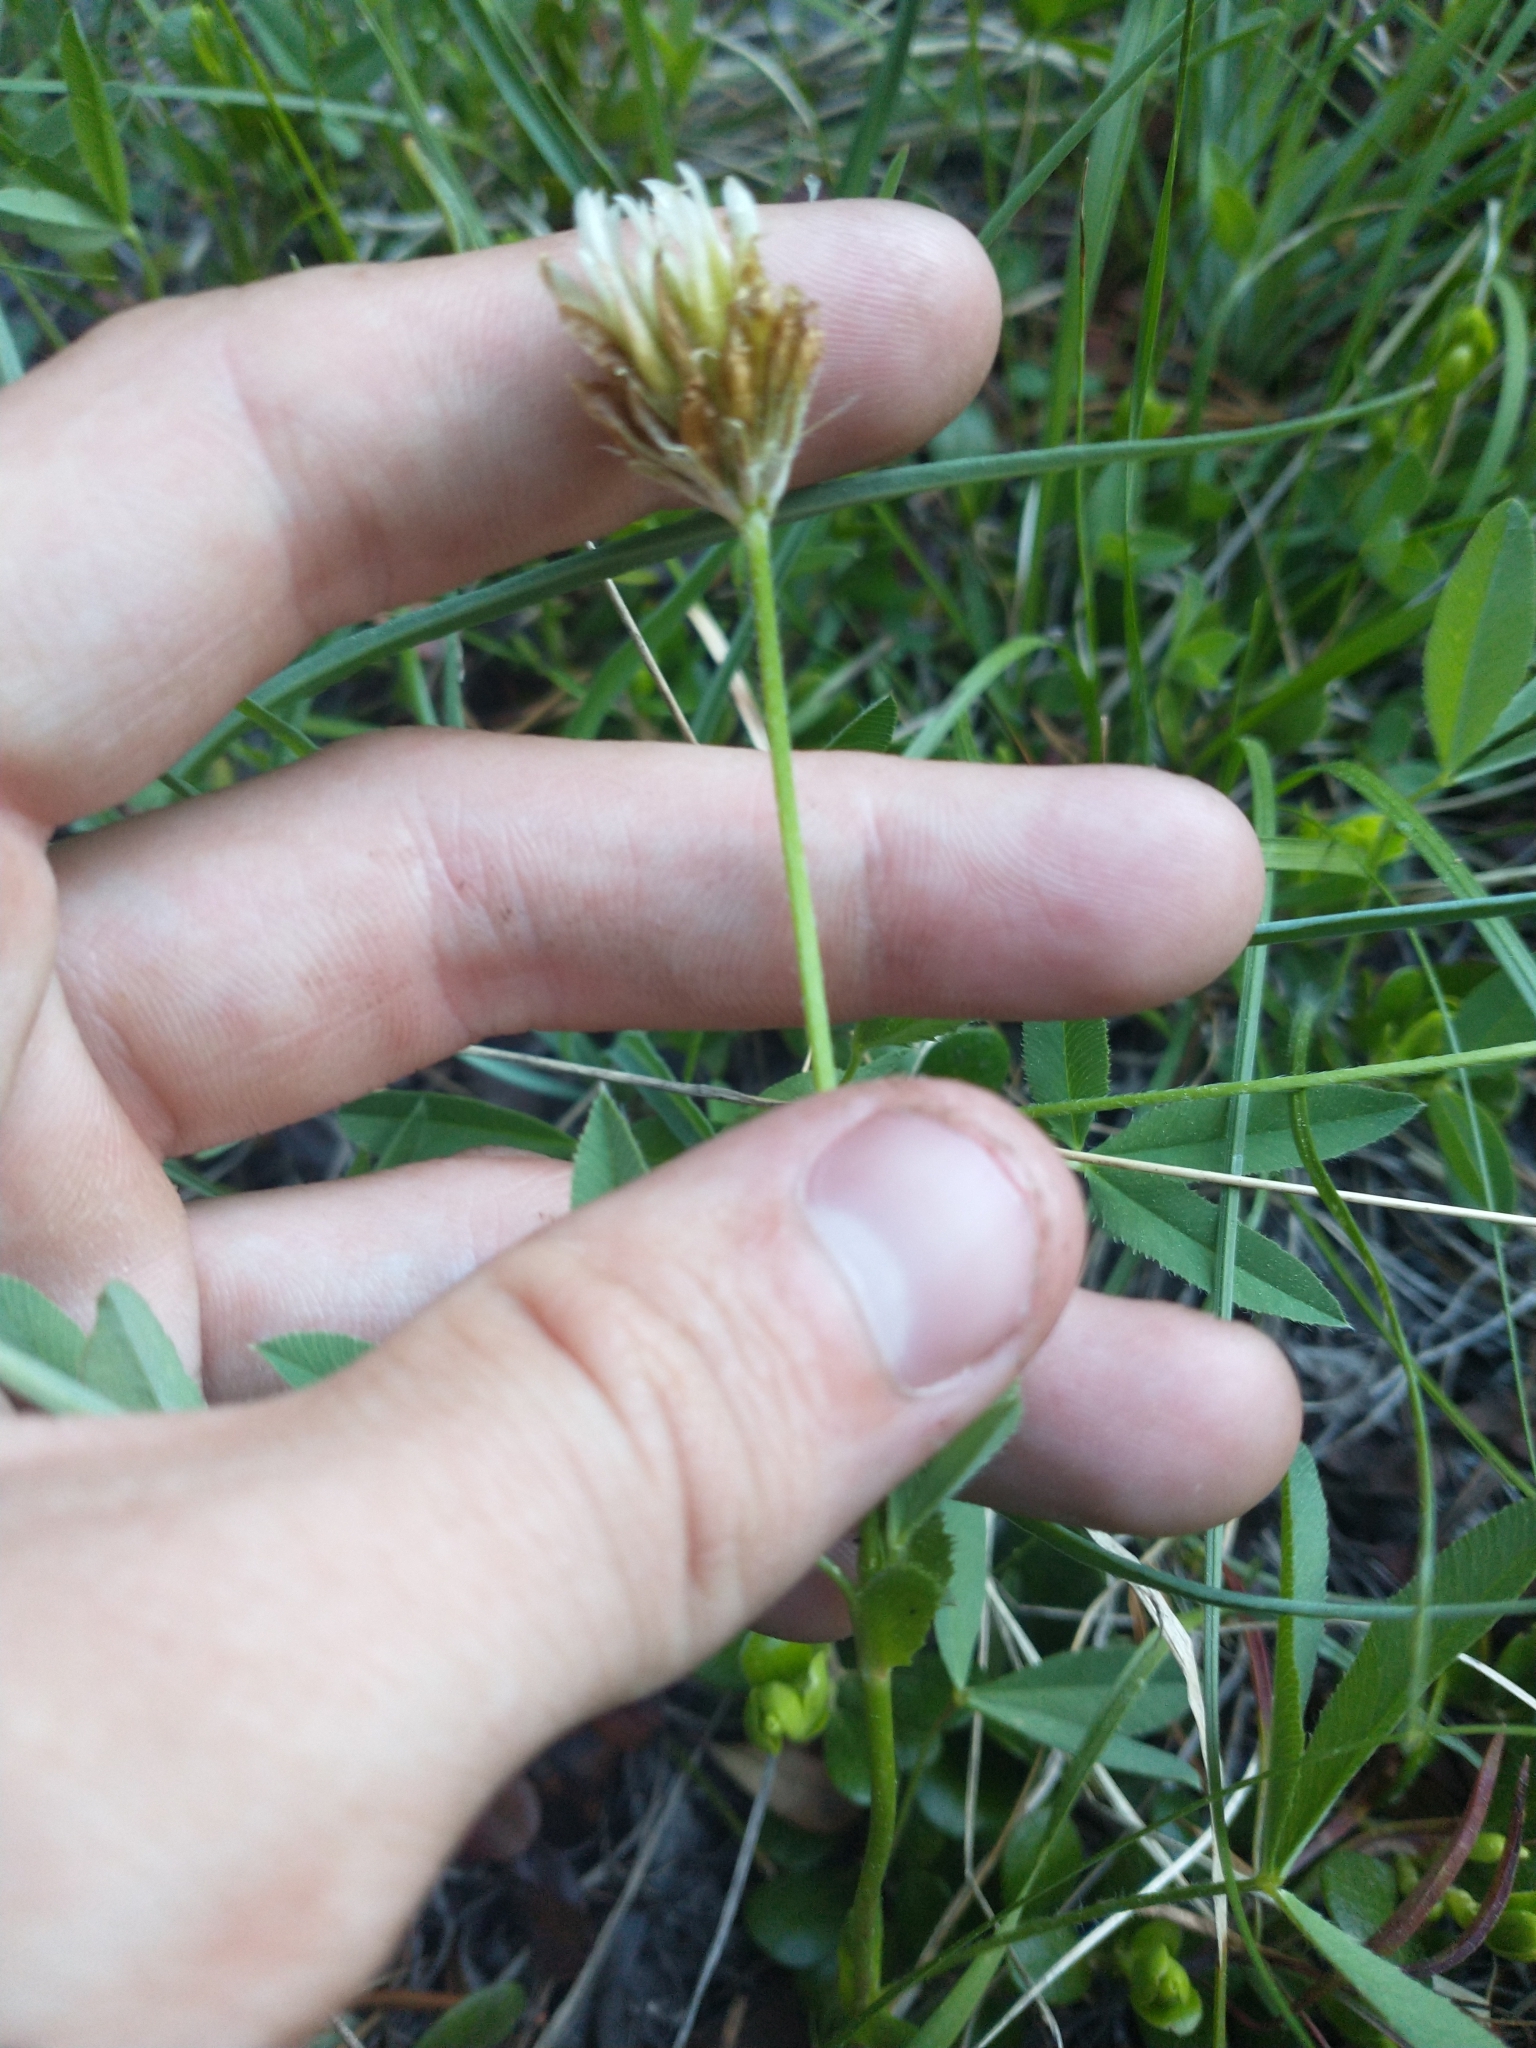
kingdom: Plantae
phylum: Tracheophyta
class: Magnoliopsida
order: Fabales
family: Fabaceae
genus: Trifolium
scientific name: Trifolium longipes
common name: Long-stalk clover
